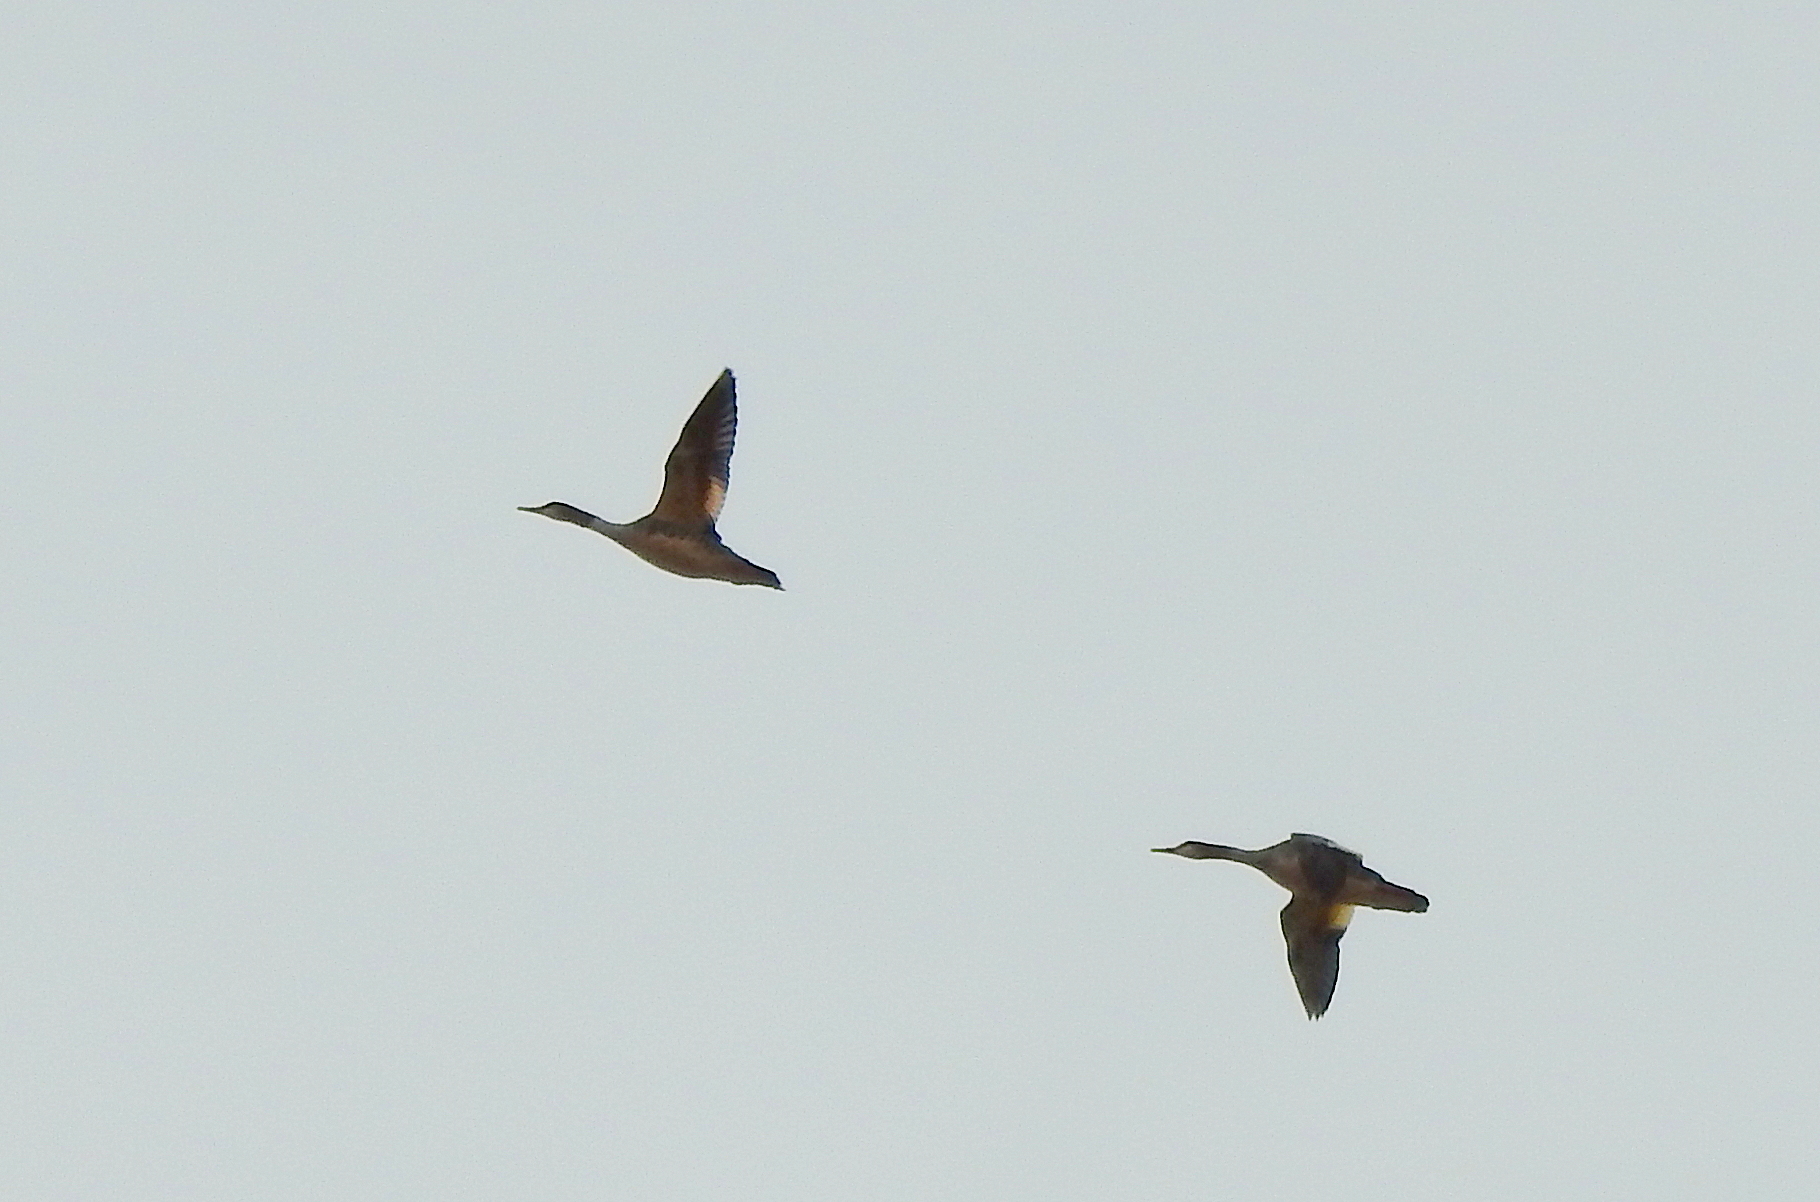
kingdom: Animalia
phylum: Chordata
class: Aves
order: Anseriformes
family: Anatidae
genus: Mergus
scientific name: Mergus merganser
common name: Common merganser
